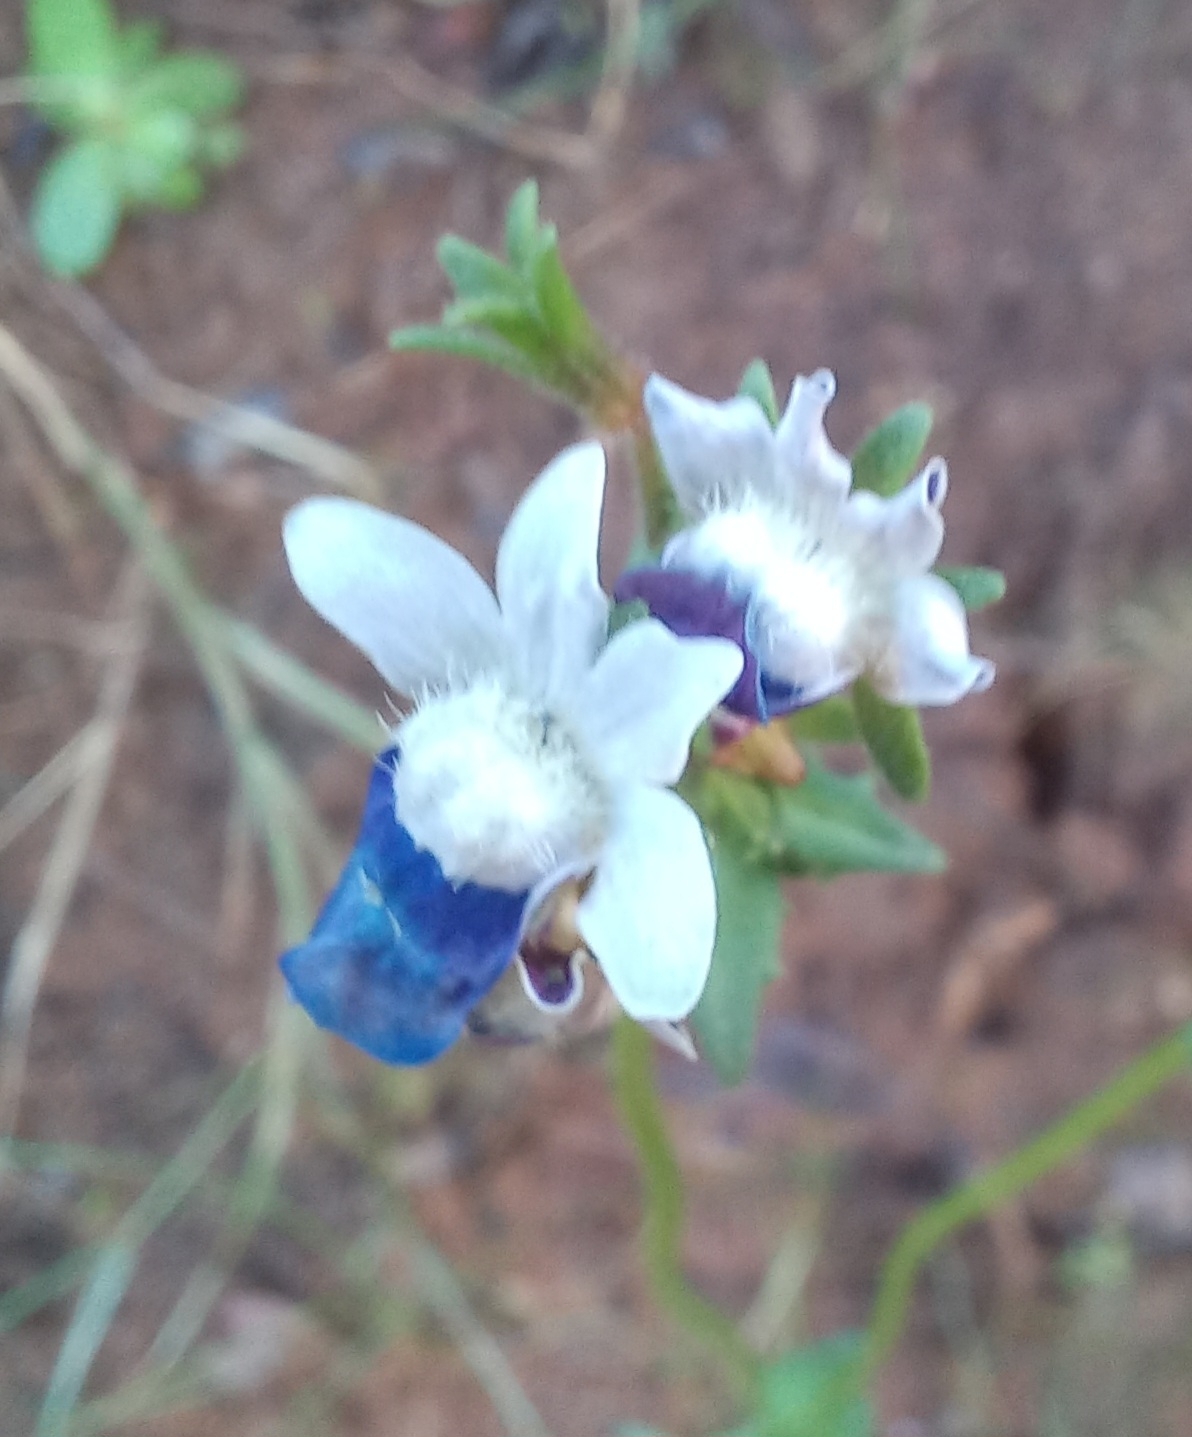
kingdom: Plantae
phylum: Tracheophyta
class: Magnoliopsida
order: Lamiales
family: Scrophulariaceae
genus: Nemesia
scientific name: Nemesia barbata
